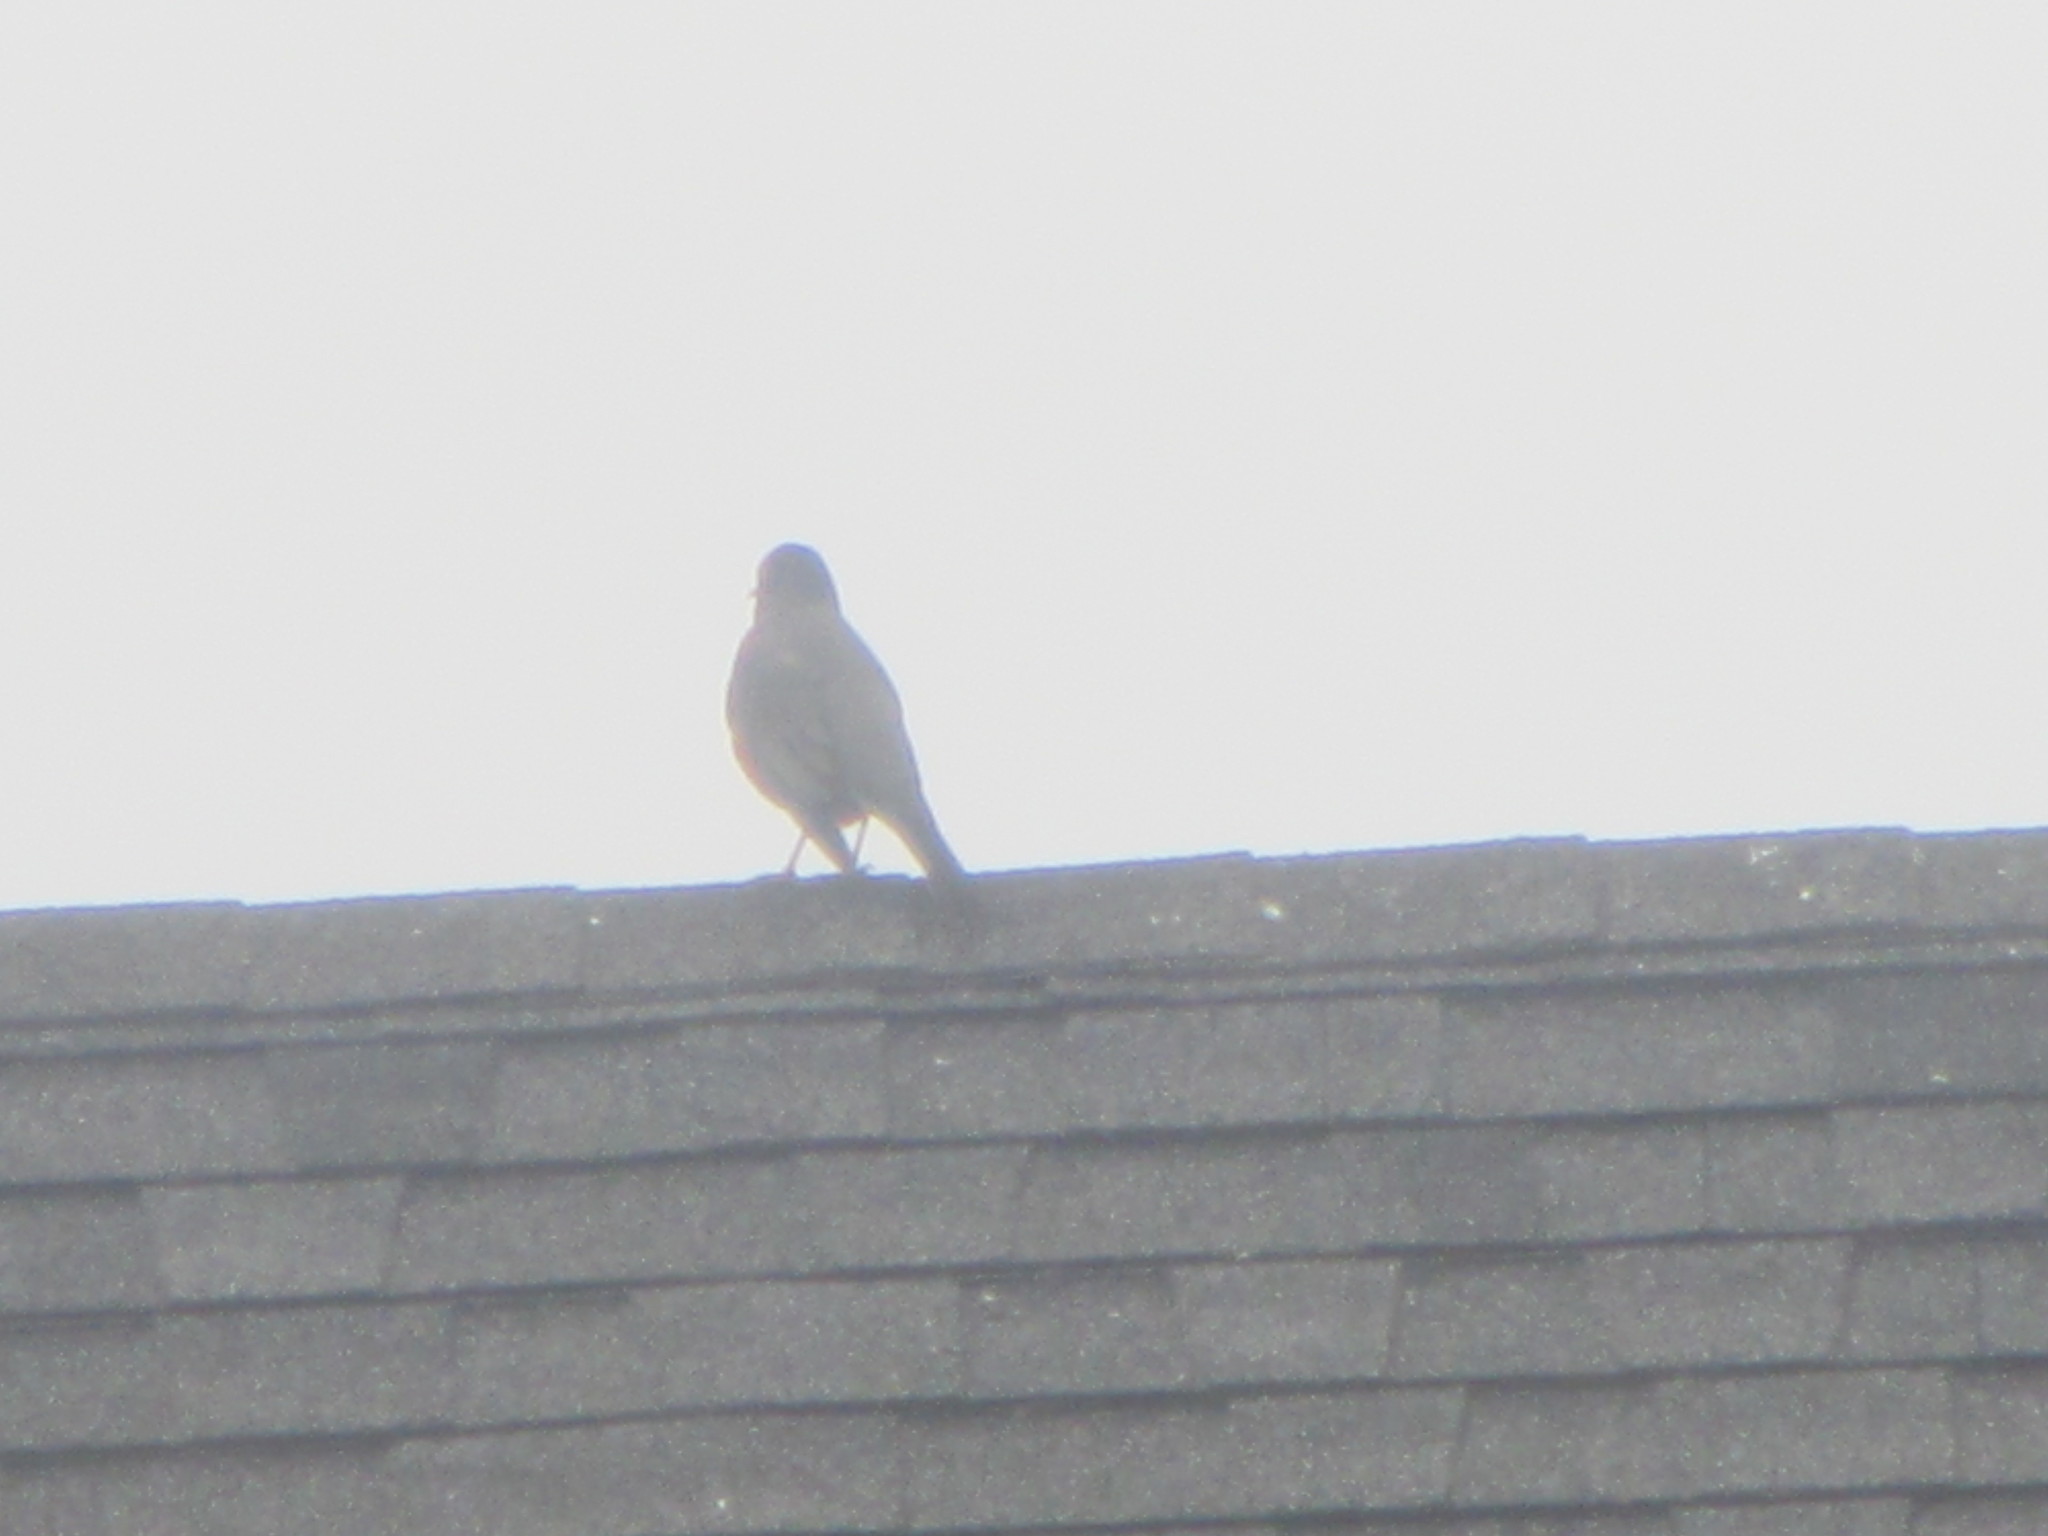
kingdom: Animalia
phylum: Chordata
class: Aves
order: Passeriformes
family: Turdidae
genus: Turdus
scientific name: Turdus migratorius
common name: American robin
